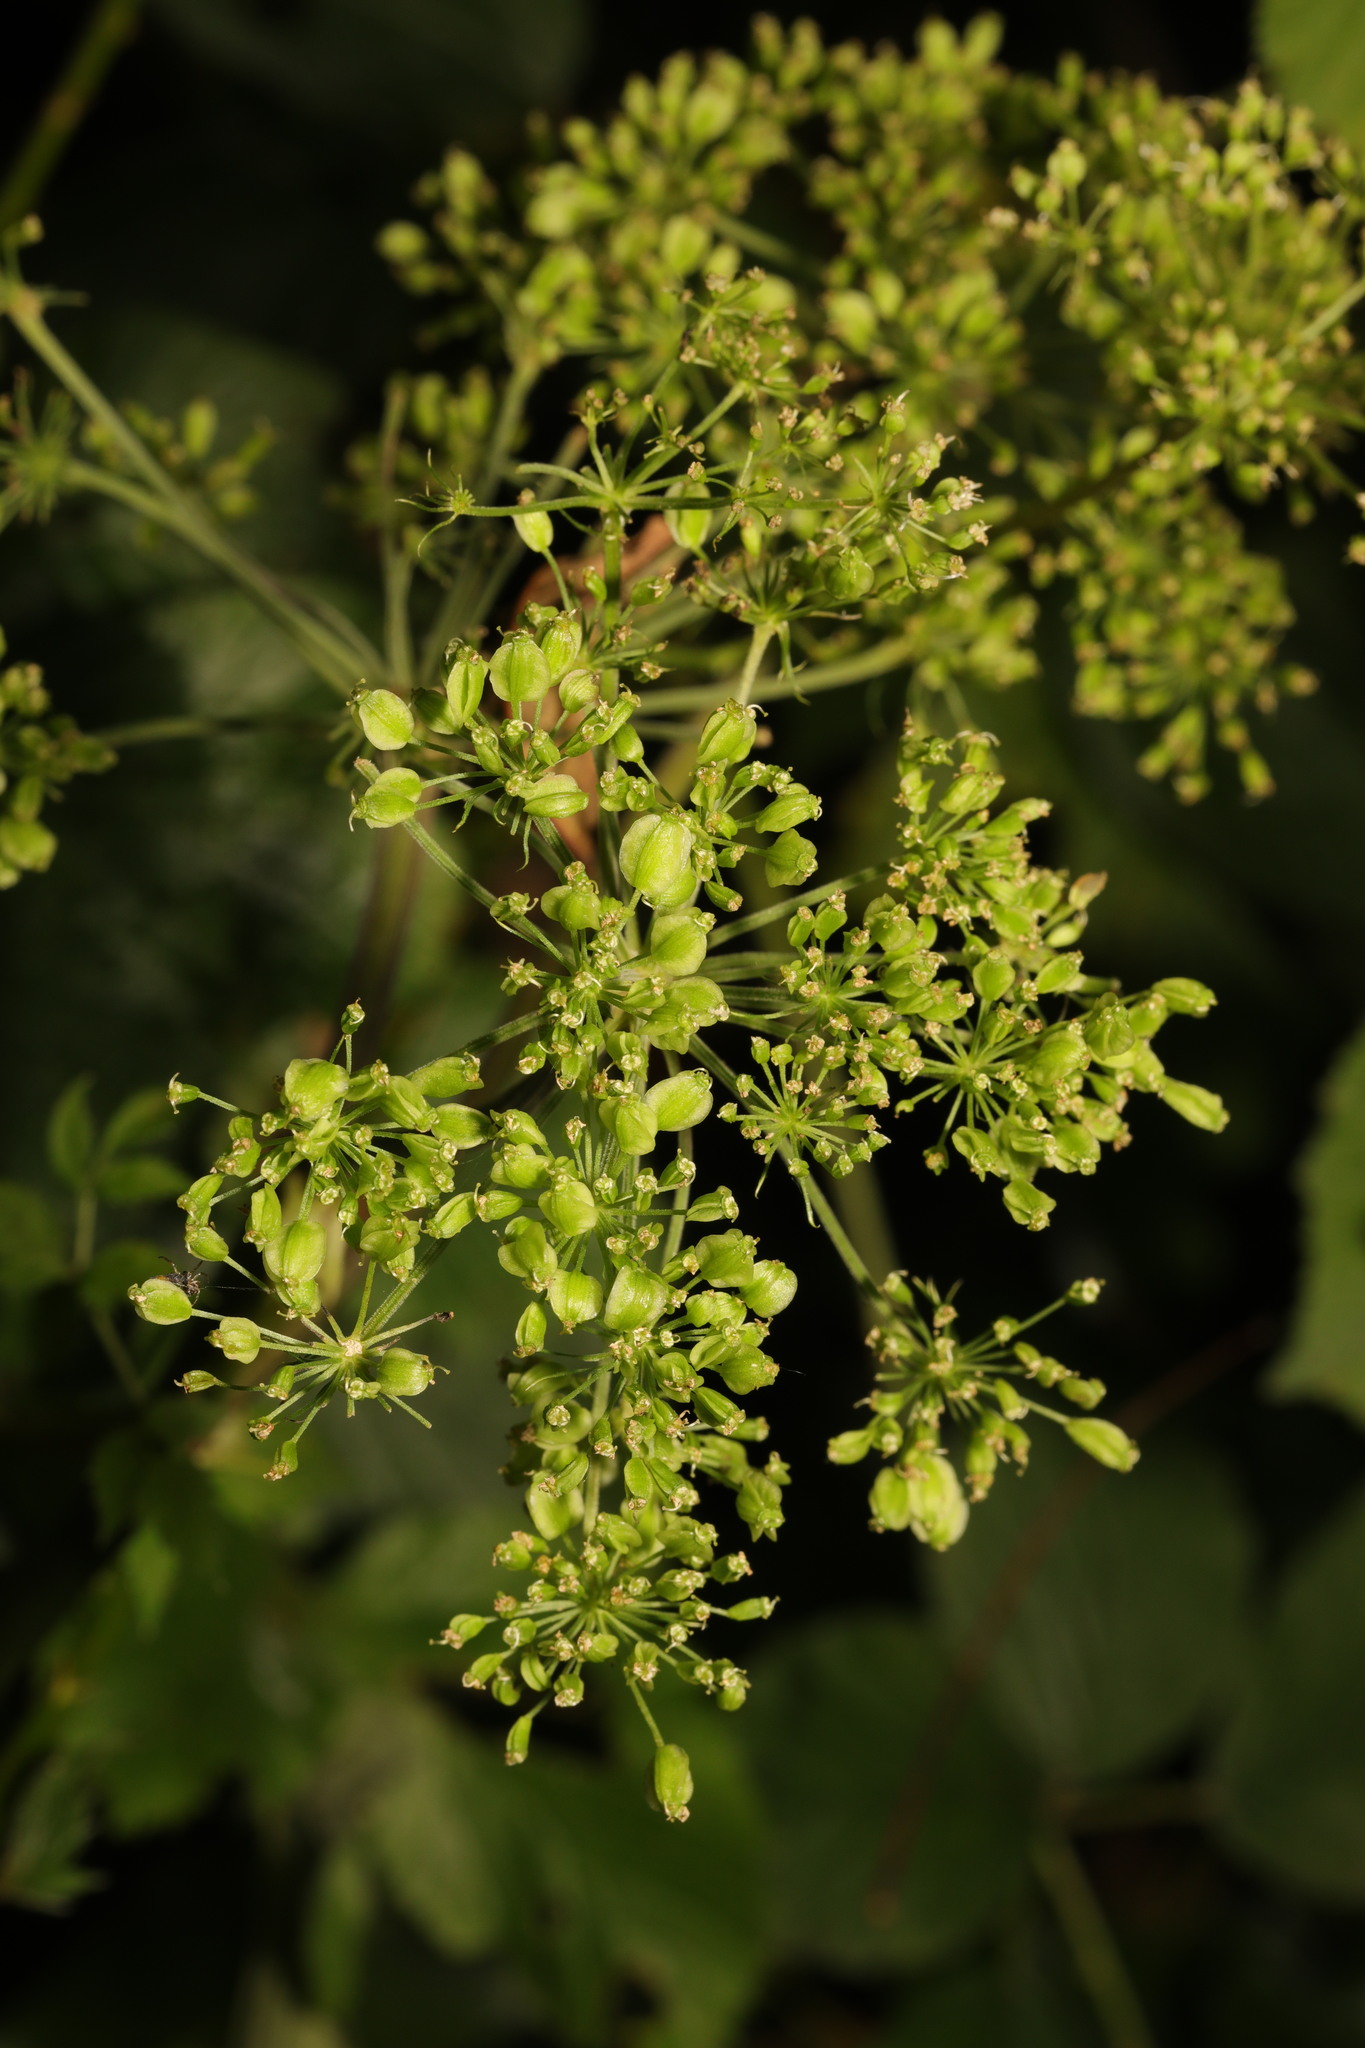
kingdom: Plantae
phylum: Tracheophyta
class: Magnoliopsida
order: Apiales
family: Apiaceae
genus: Angelica
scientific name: Angelica sylvestris
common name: Wild angelica
